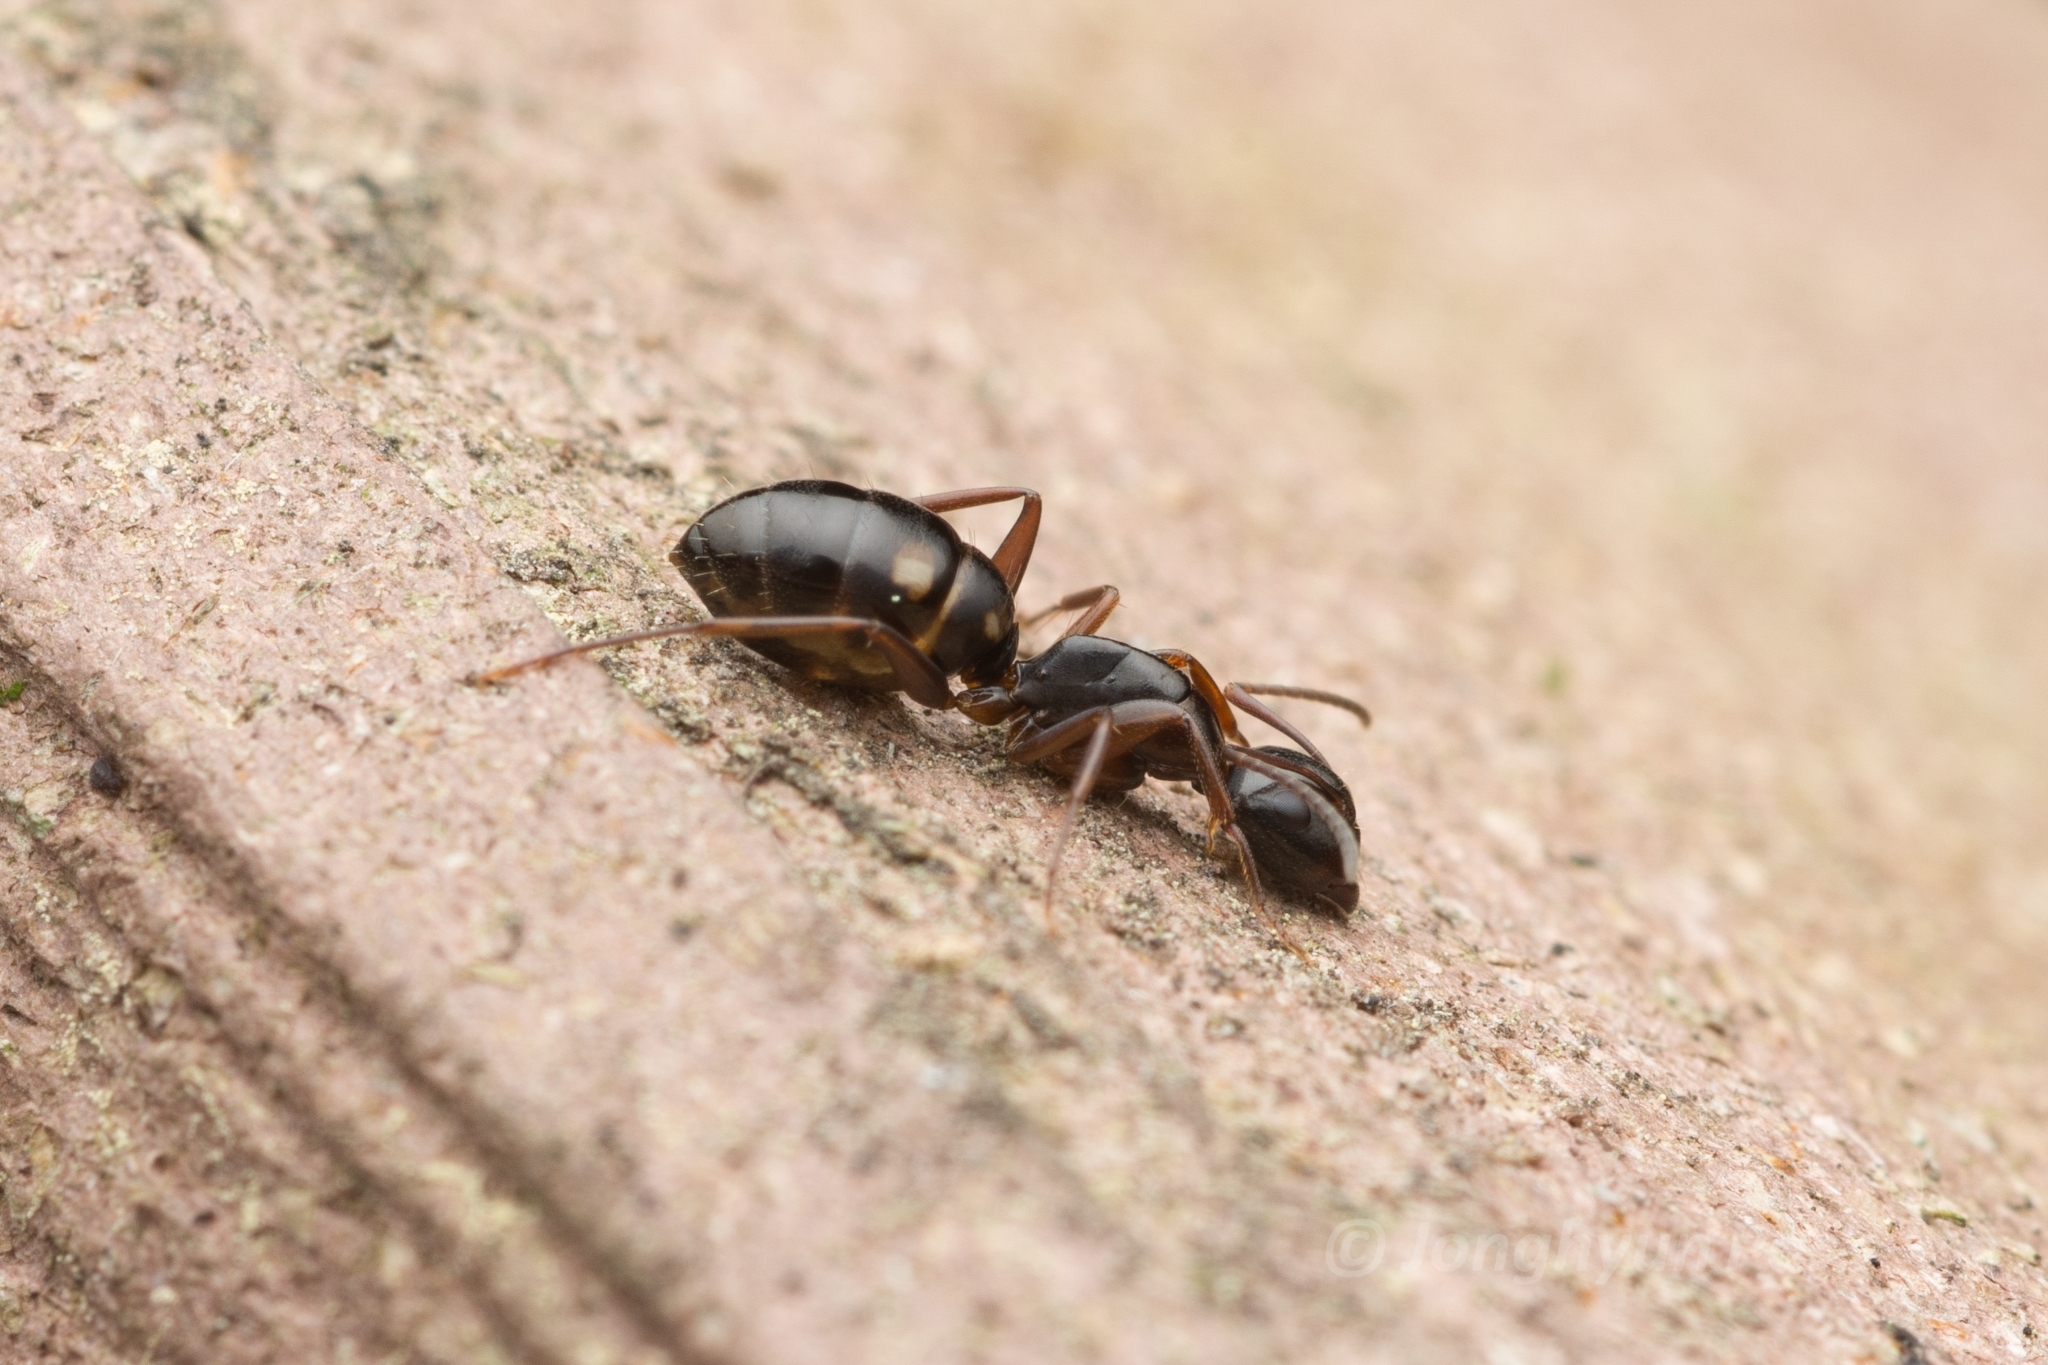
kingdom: Animalia
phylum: Arthropoda
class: Insecta
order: Hymenoptera
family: Formicidae
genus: Camponotus
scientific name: Camponotus quadrinotatus
